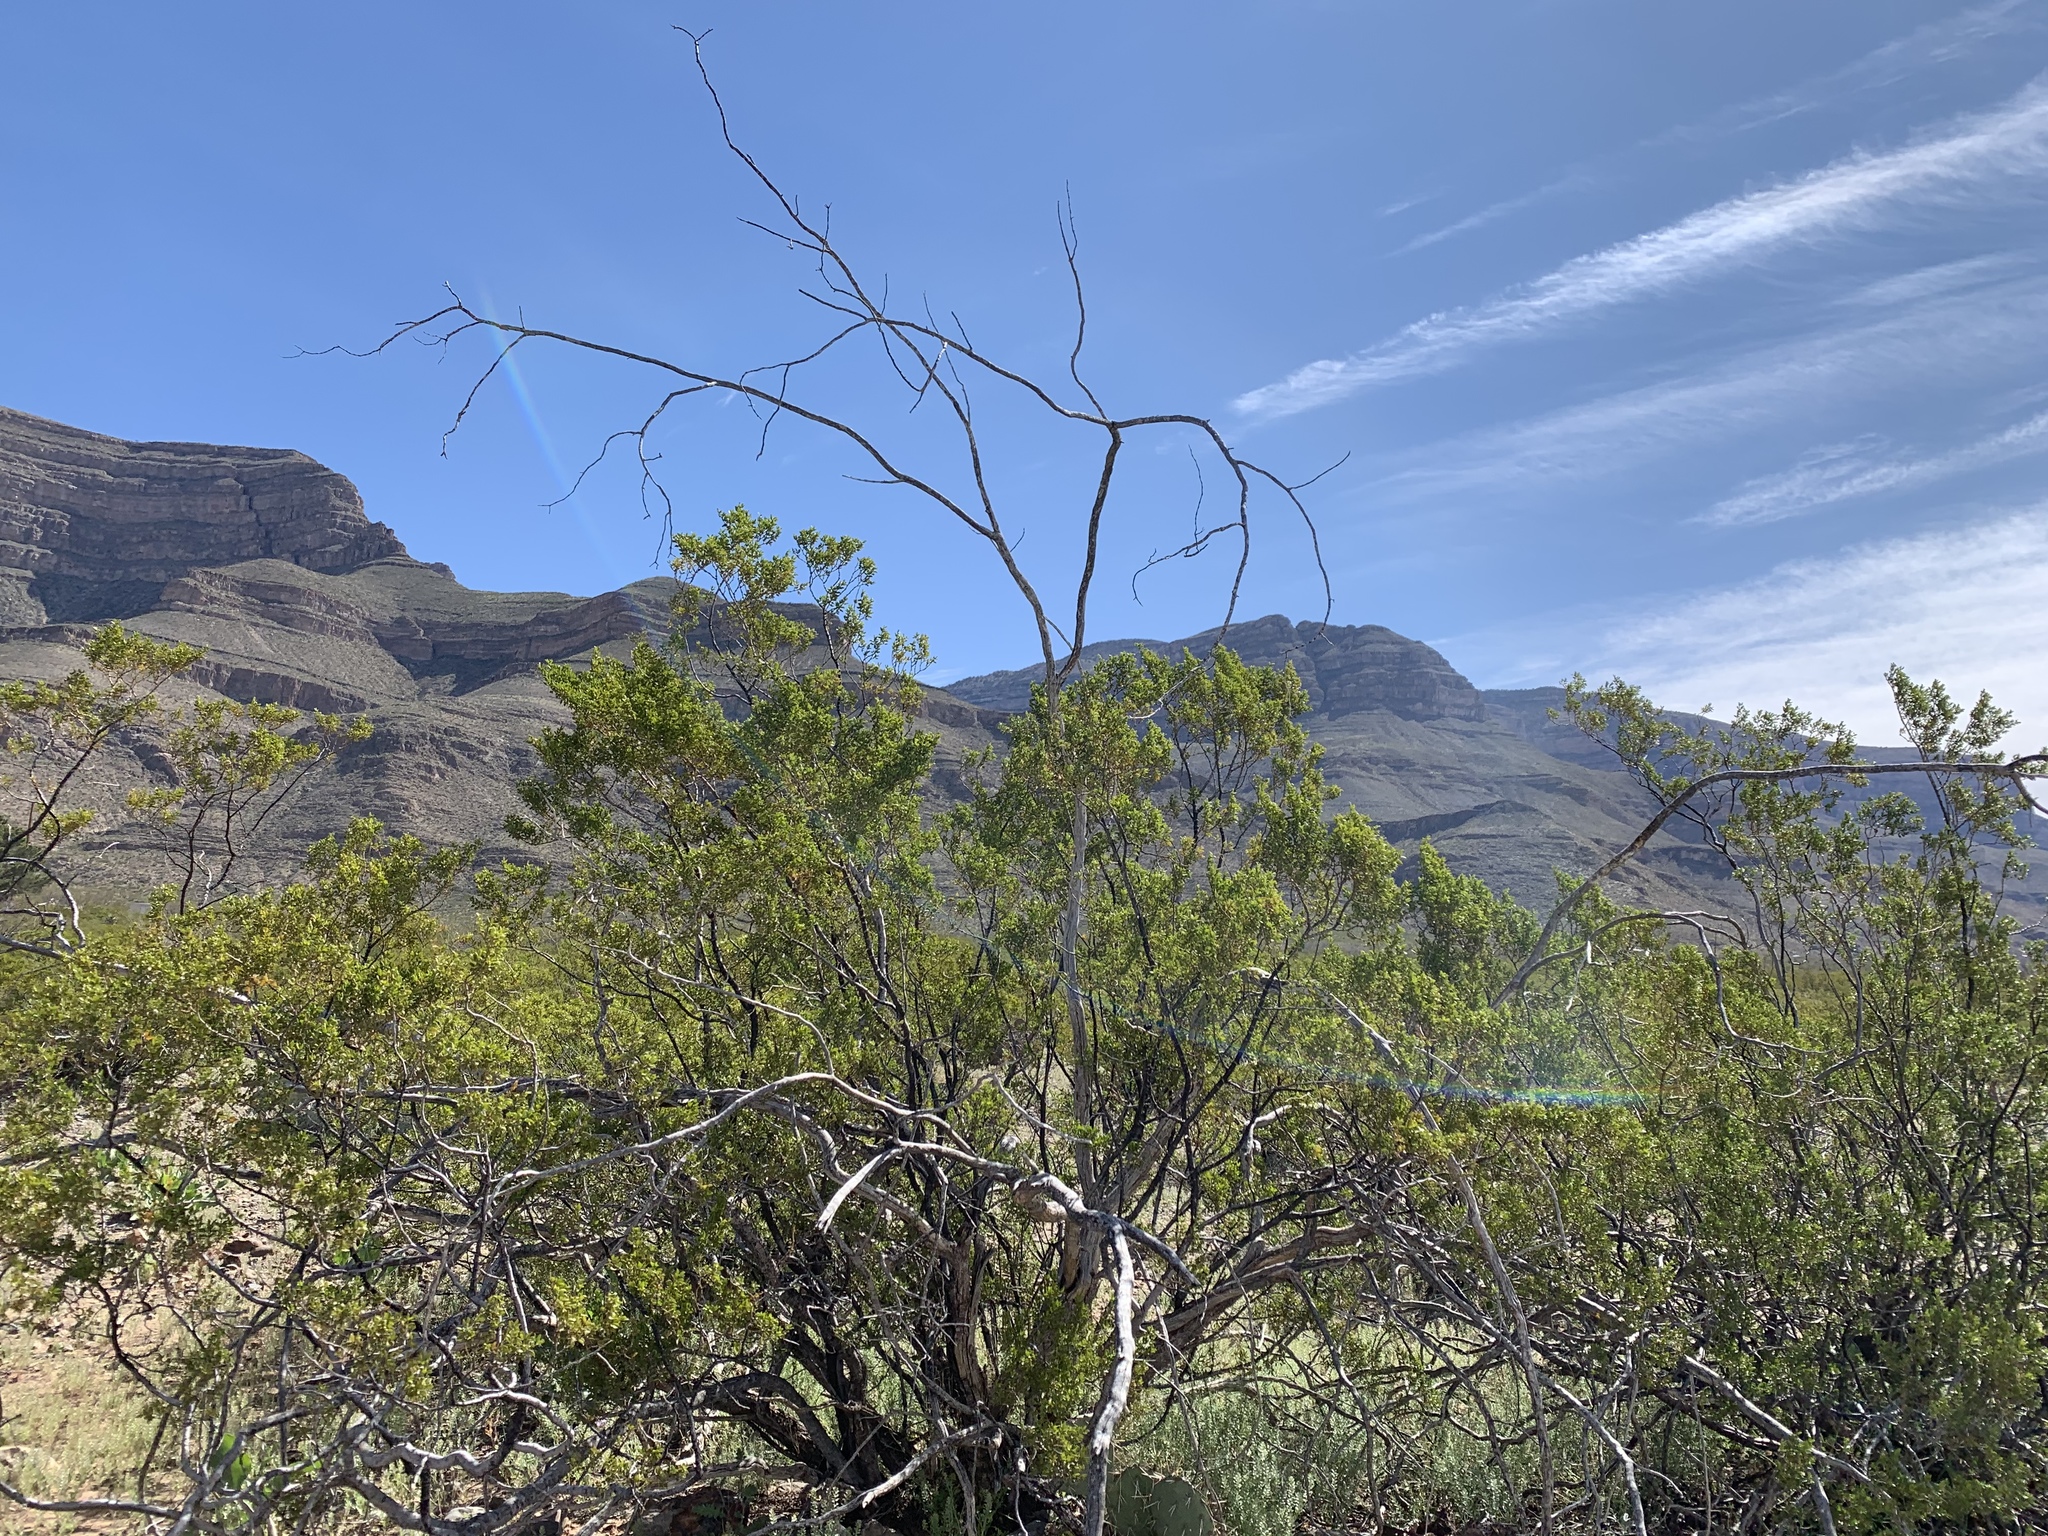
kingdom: Plantae
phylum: Tracheophyta
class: Magnoliopsida
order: Zygophyllales
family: Zygophyllaceae
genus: Larrea
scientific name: Larrea tridentata
